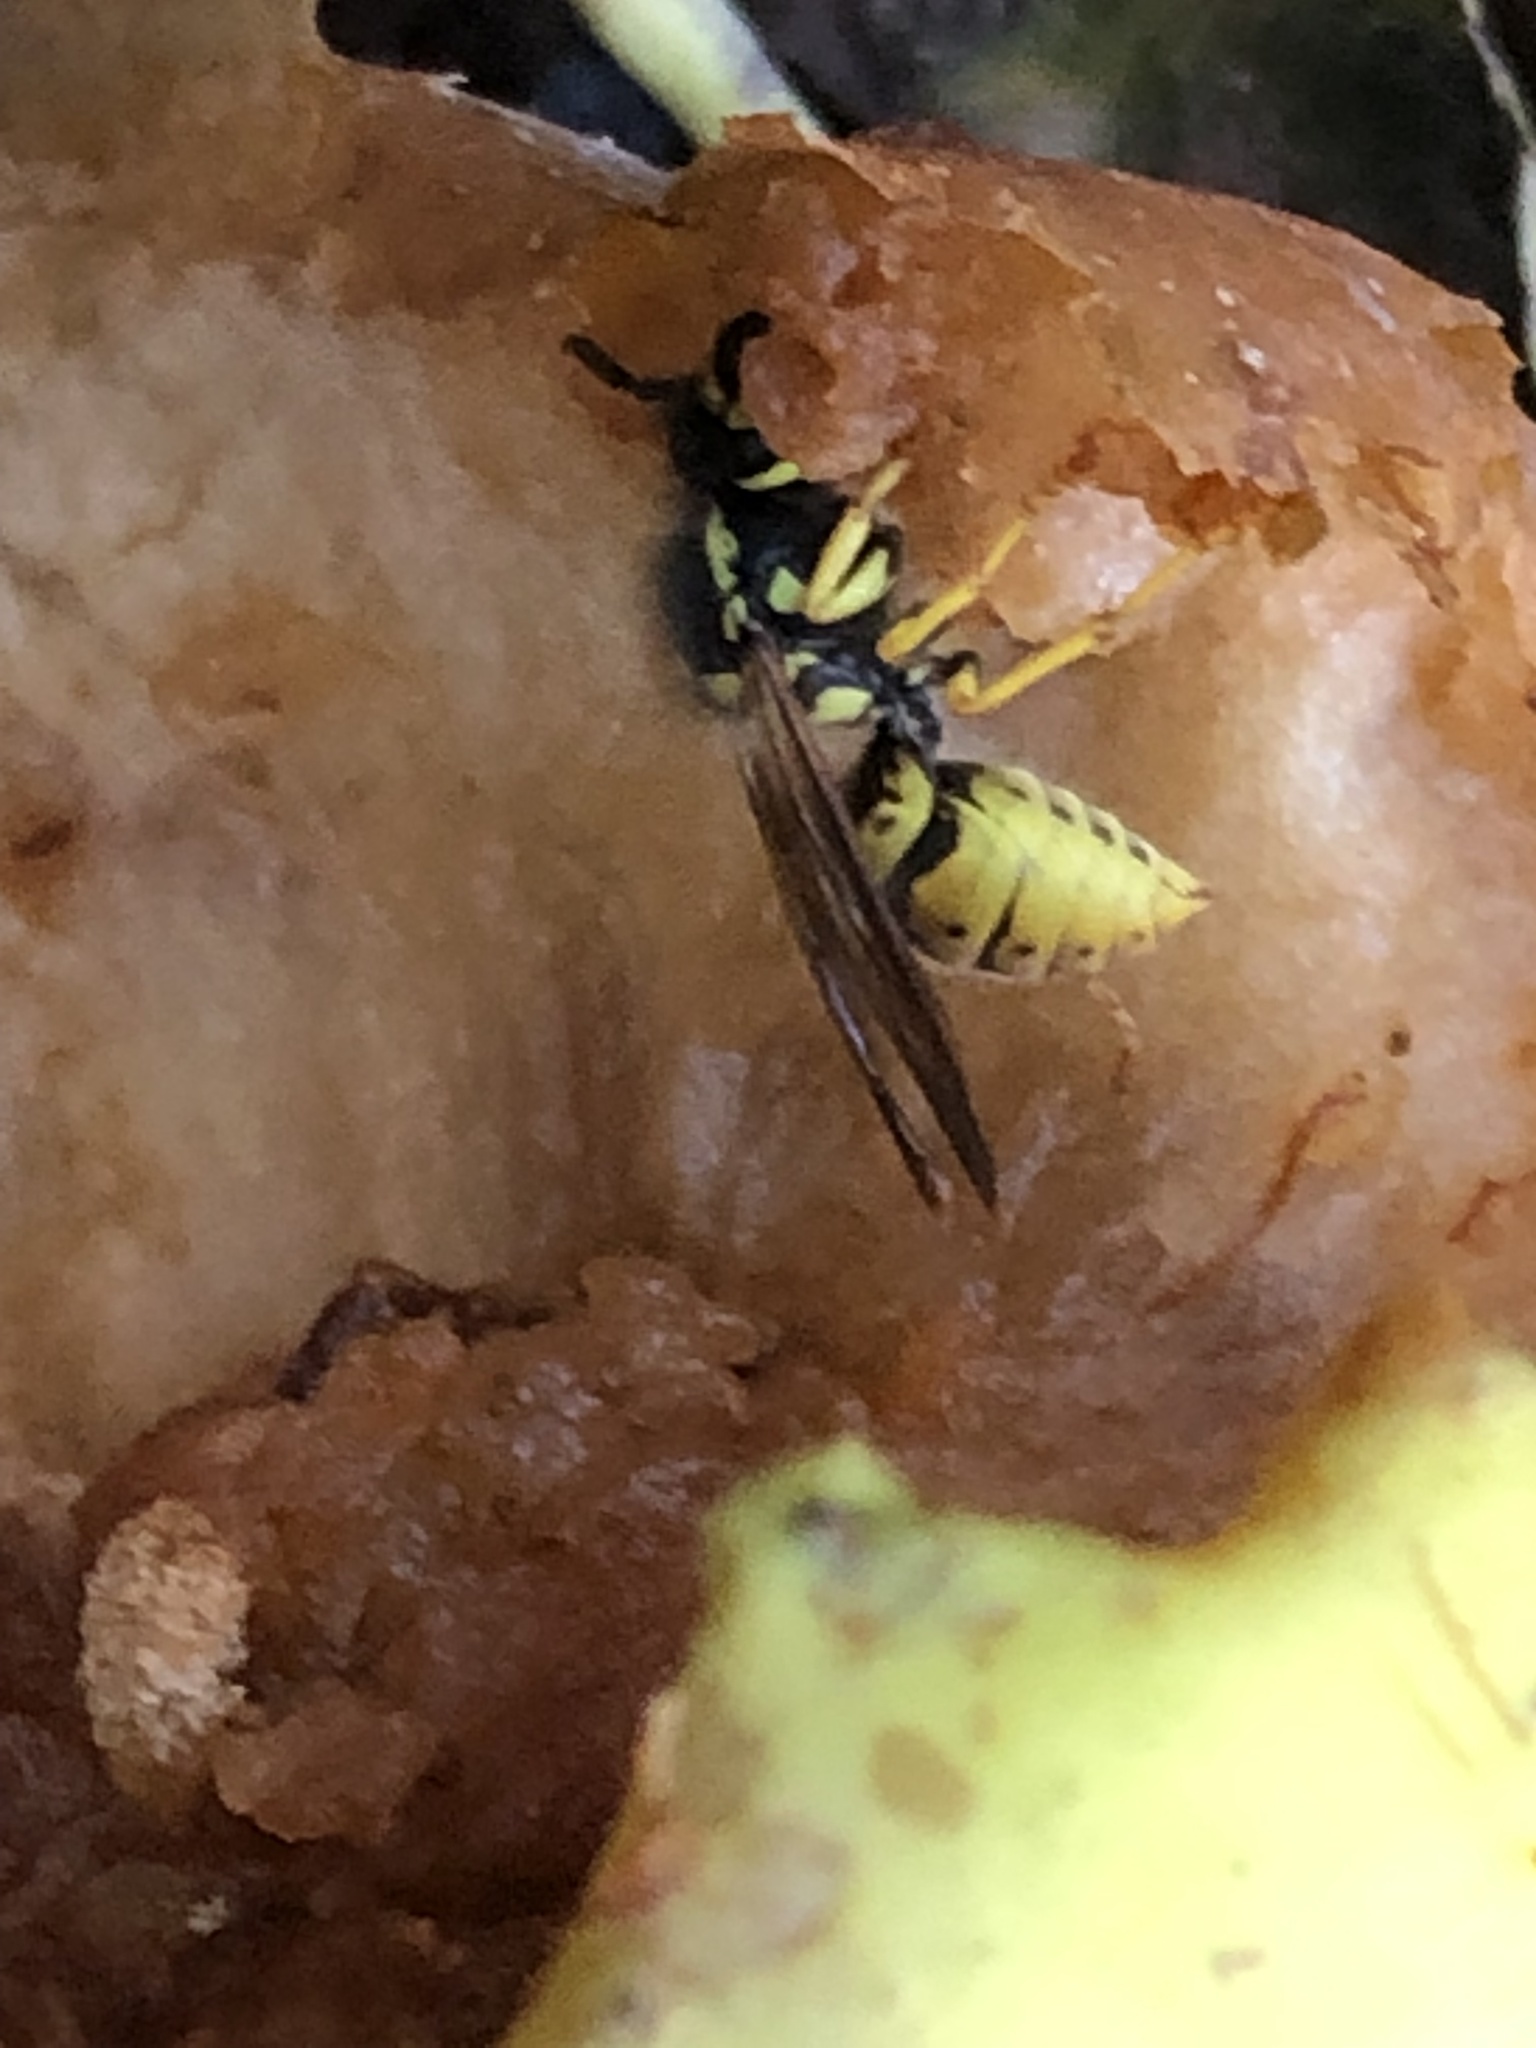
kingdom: Animalia
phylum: Arthropoda
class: Insecta
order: Hymenoptera
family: Vespidae
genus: Vespula
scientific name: Vespula germanica
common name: German wasp
